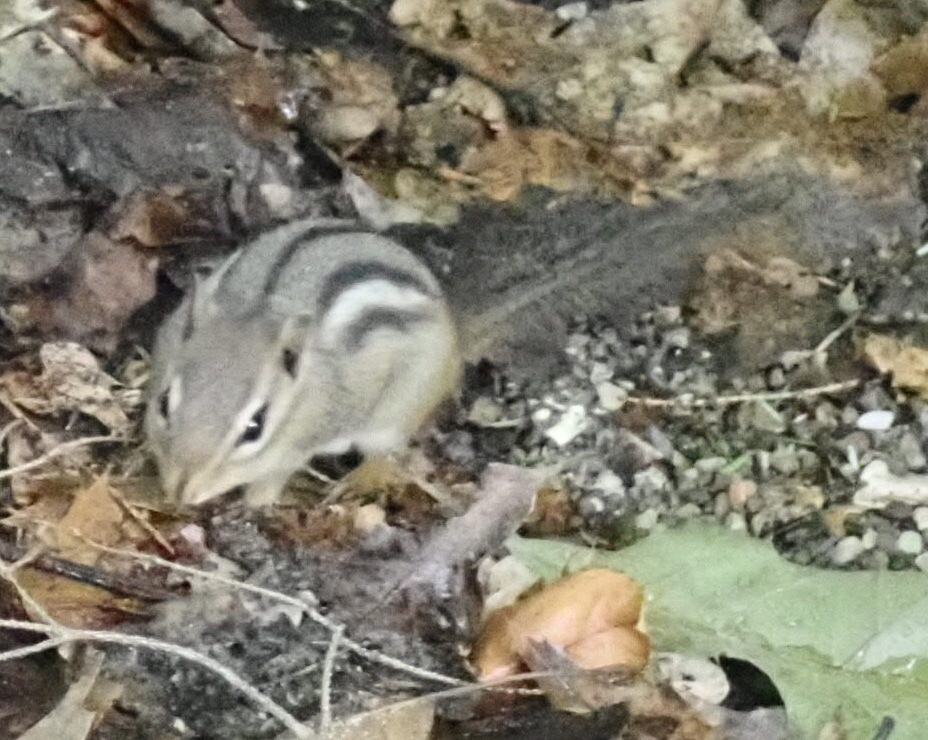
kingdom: Animalia
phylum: Chordata
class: Mammalia
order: Rodentia
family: Sciuridae
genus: Tamias
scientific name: Tamias striatus
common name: Eastern chipmunk
